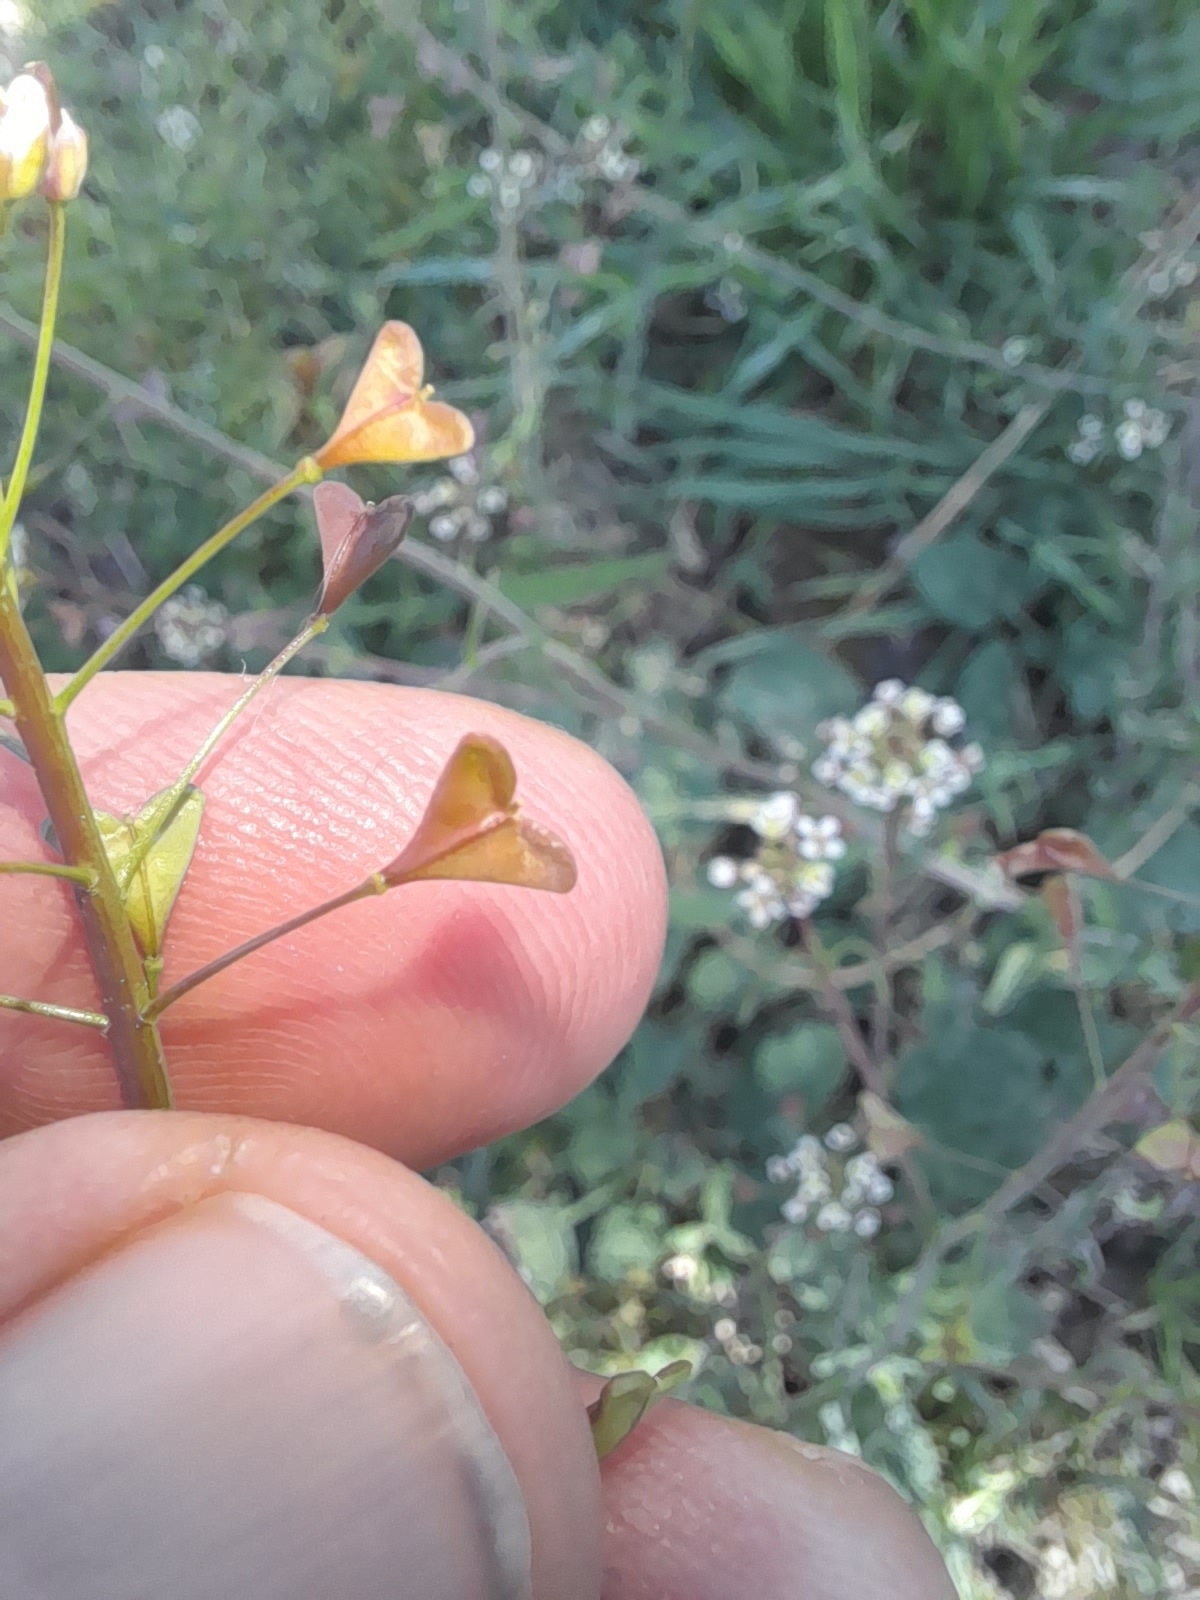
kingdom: Plantae
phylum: Tracheophyta
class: Magnoliopsida
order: Brassicales
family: Brassicaceae
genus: Capsella
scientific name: Capsella bursa-pastoris
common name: Shepherd's purse
